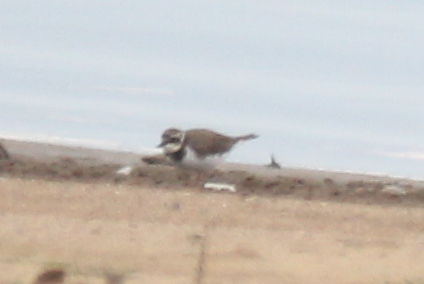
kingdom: Animalia
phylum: Chordata
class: Aves
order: Charadriiformes
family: Charadriidae
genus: Charadrius
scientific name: Charadrius dubius
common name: Little ringed plover
